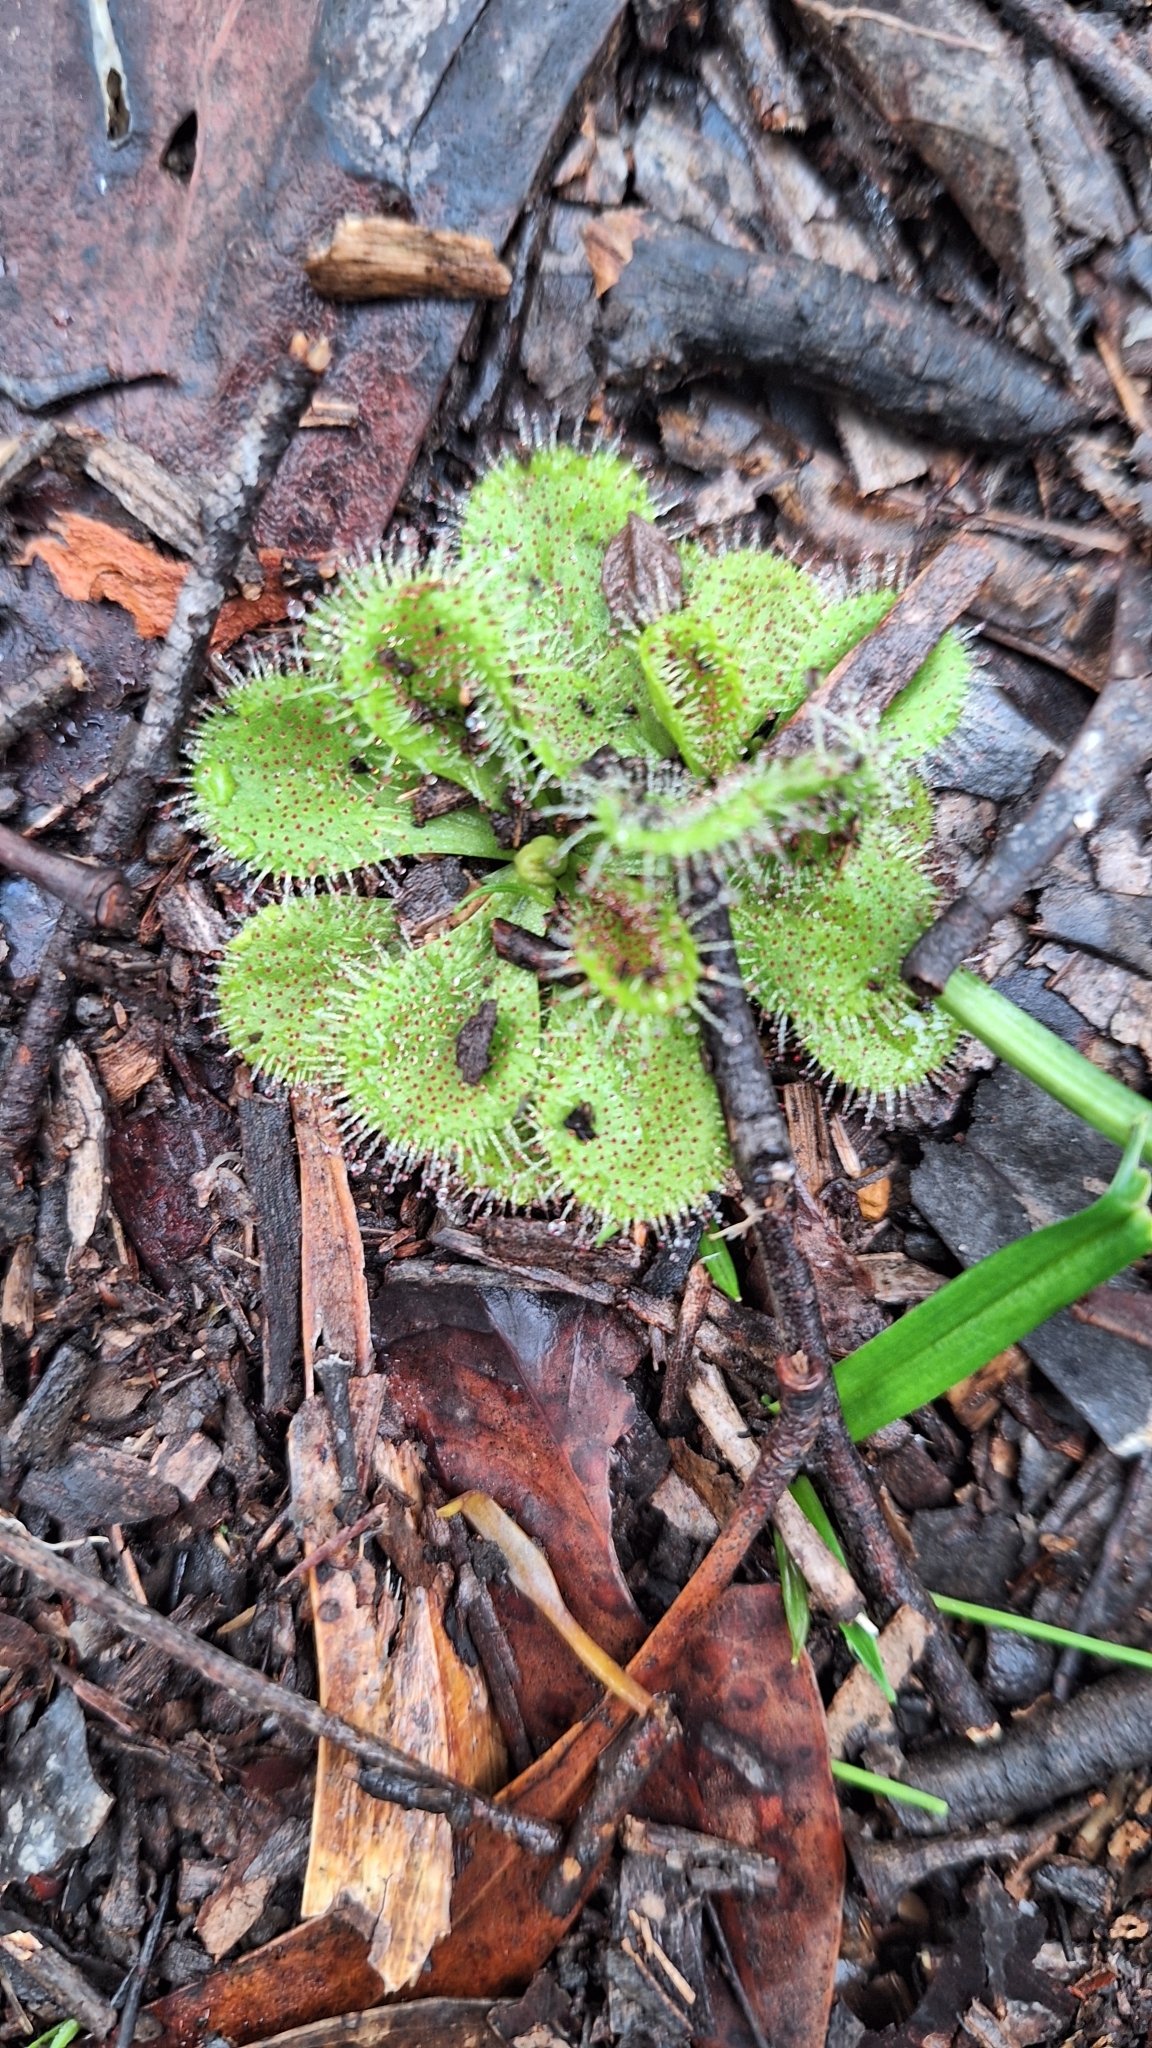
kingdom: Plantae
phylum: Tracheophyta
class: Magnoliopsida
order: Caryophyllales
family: Droseraceae
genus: Drosera
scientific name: Drosera whittakeri
